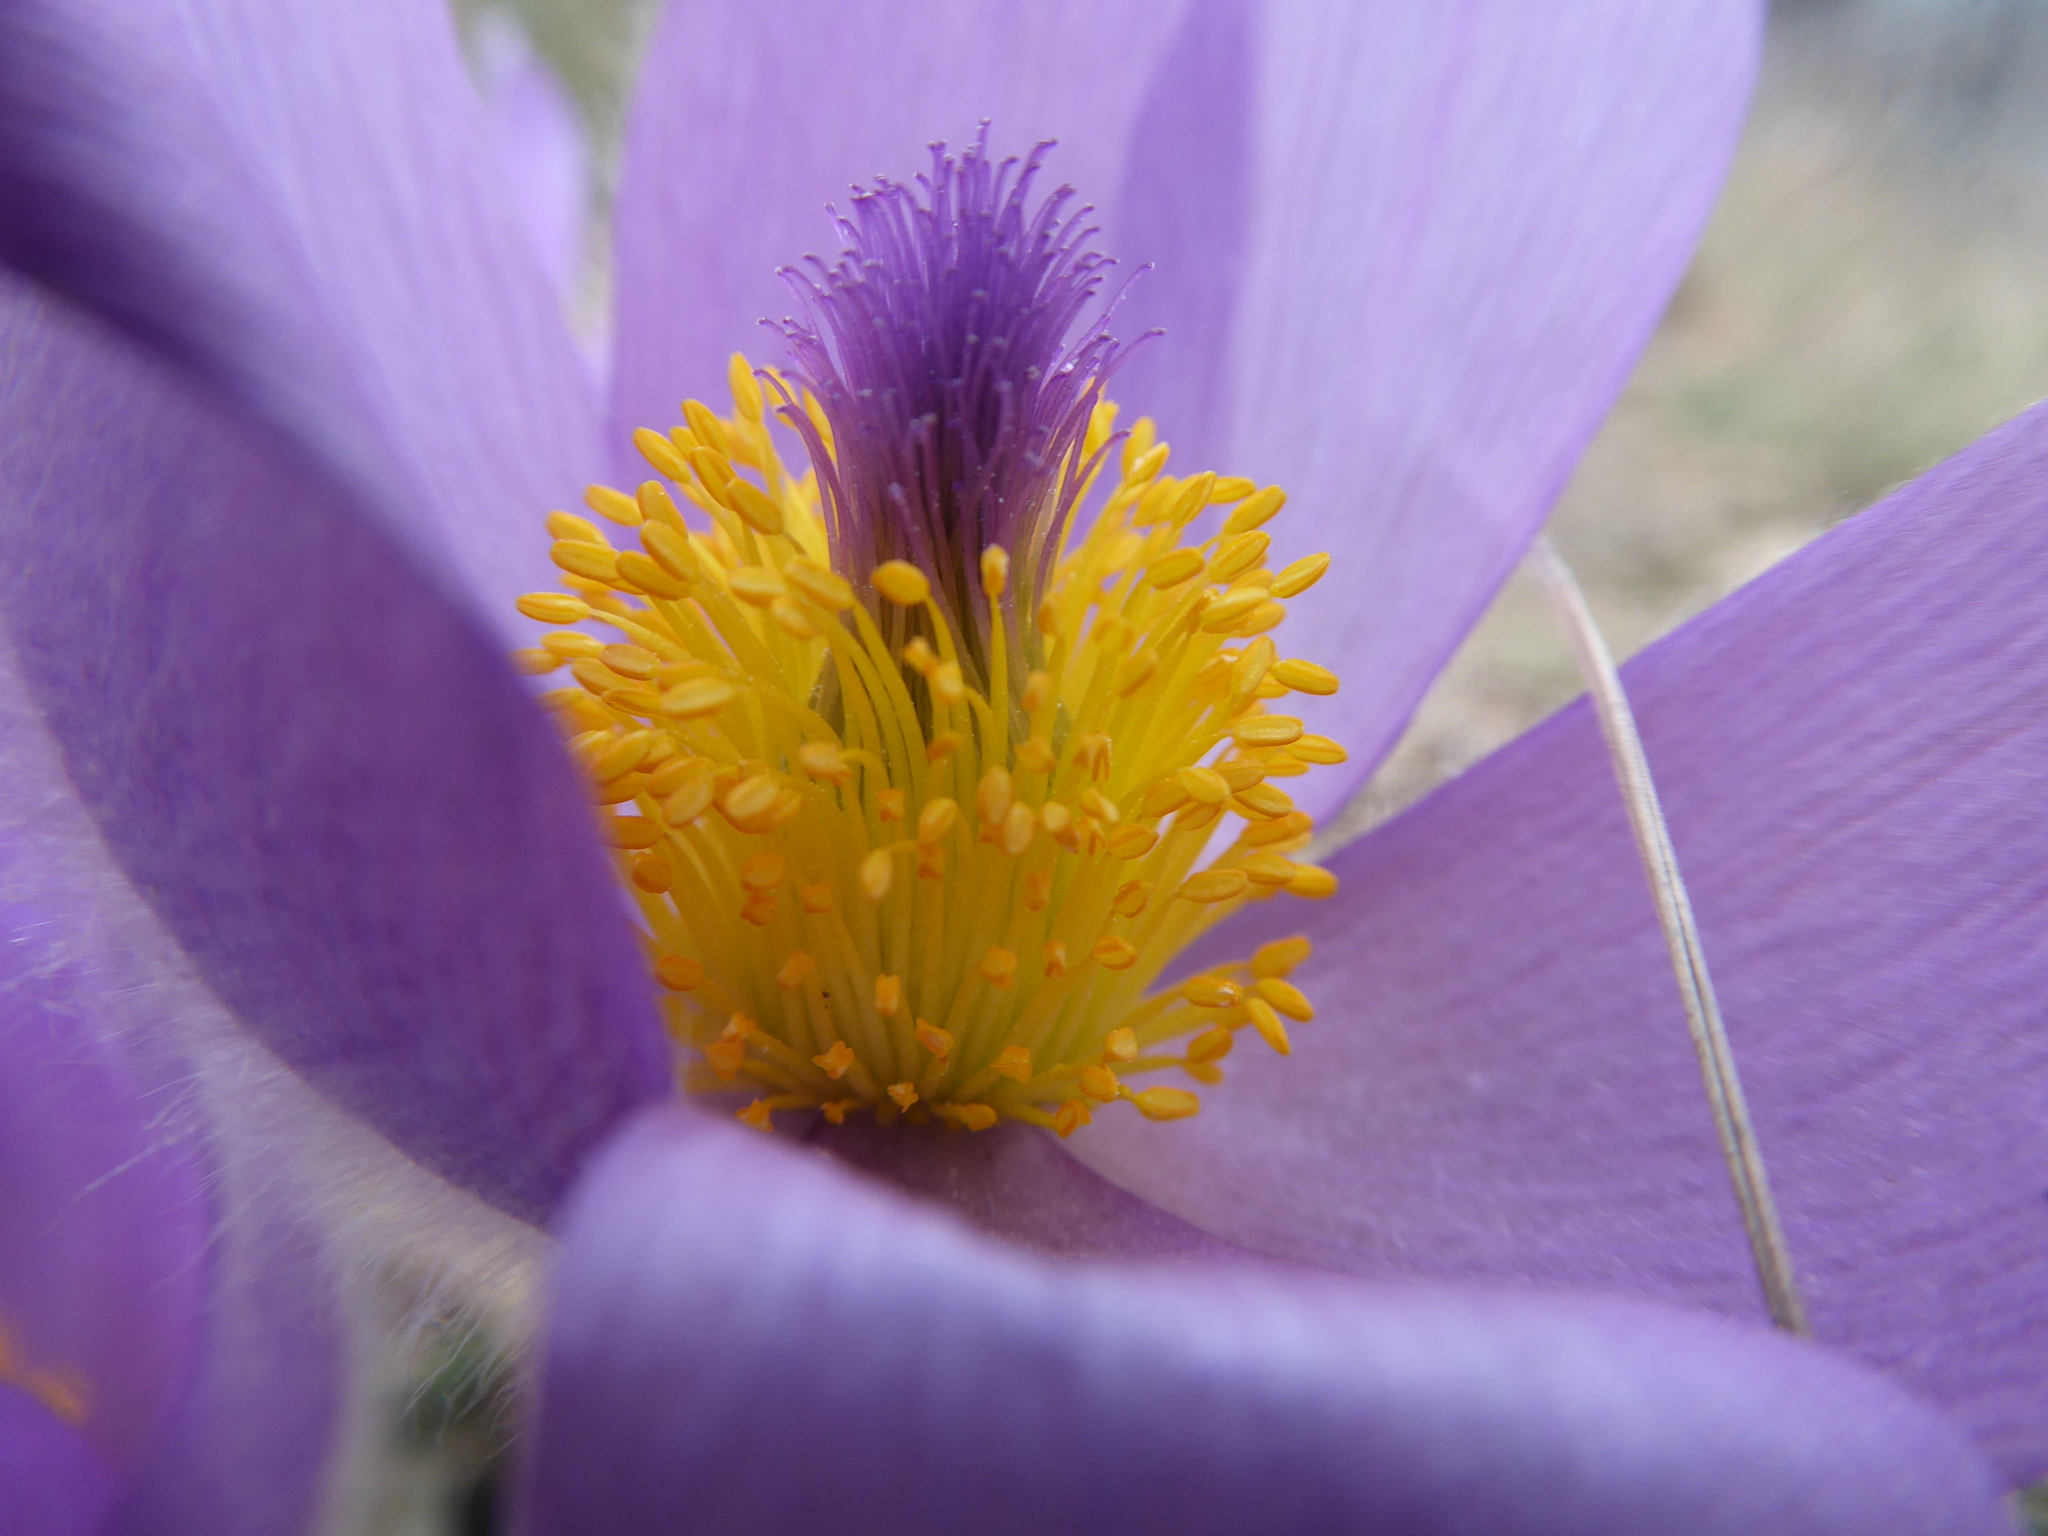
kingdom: Plantae
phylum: Tracheophyta
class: Magnoliopsida
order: Ranunculales
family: Ranunculaceae
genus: Pulsatilla
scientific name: Pulsatilla grandis
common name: Greater pasque flower
